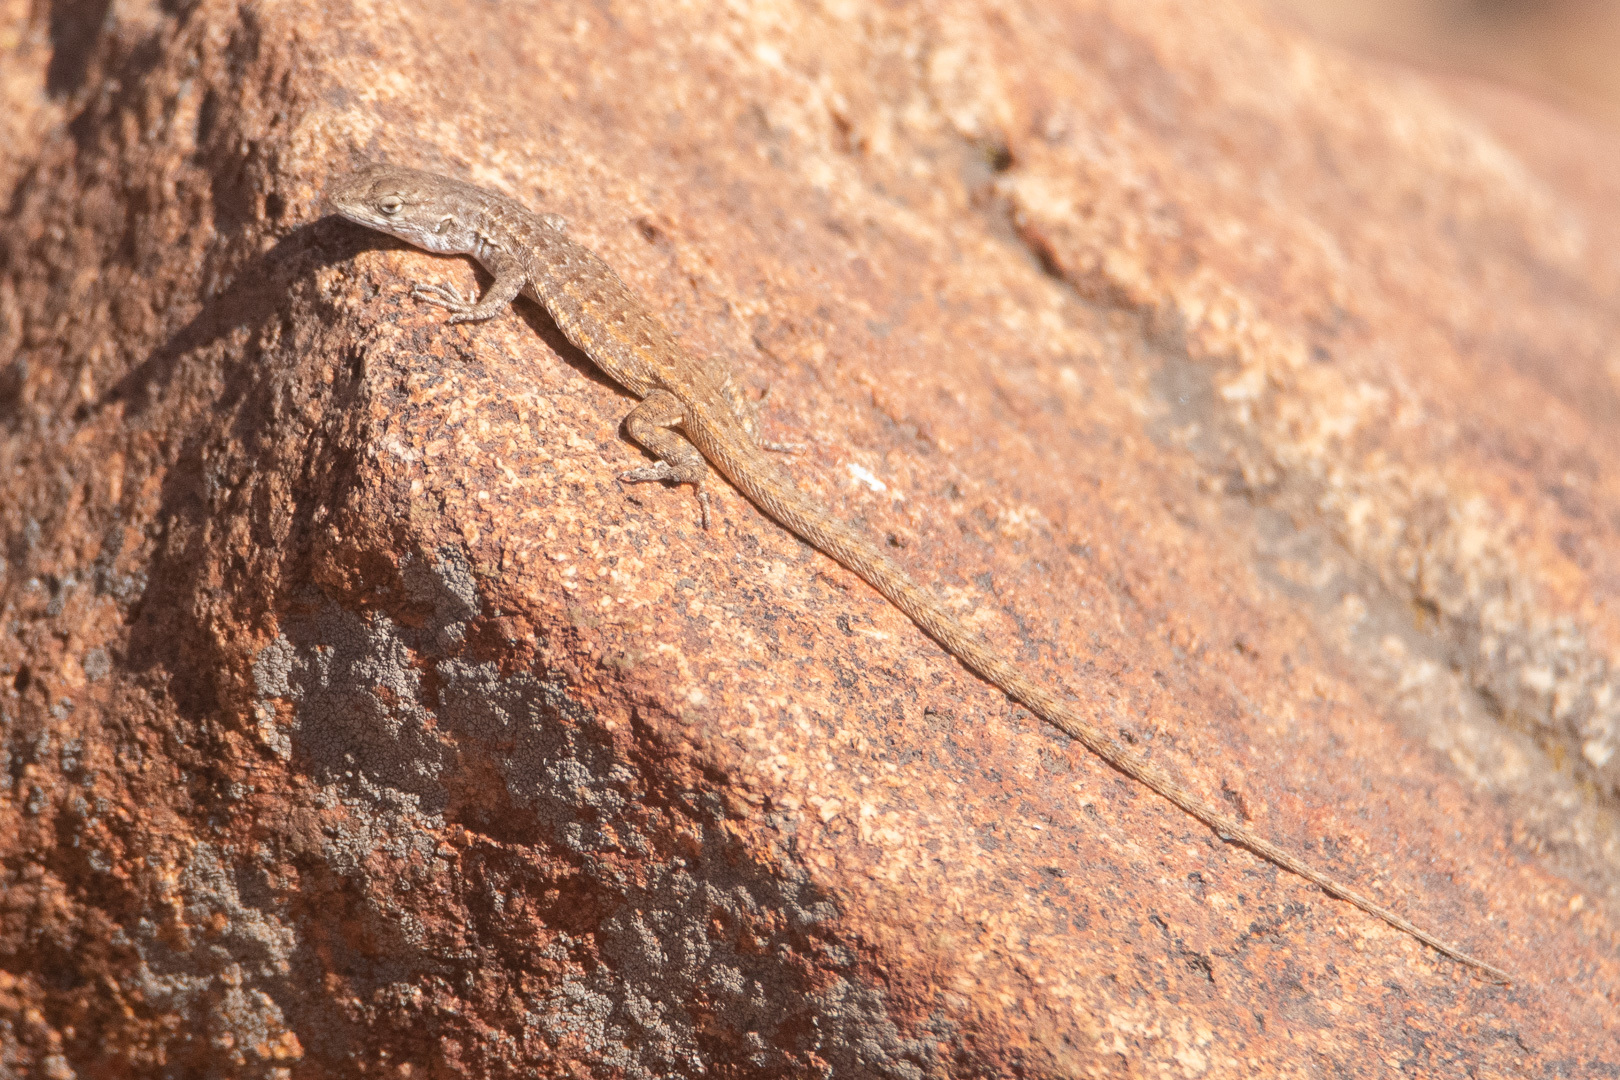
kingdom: Animalia
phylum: Chordata
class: Squamata
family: Liolaemidae
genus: Liolaemus
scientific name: Liolaemus platei
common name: Braided tree iguana
